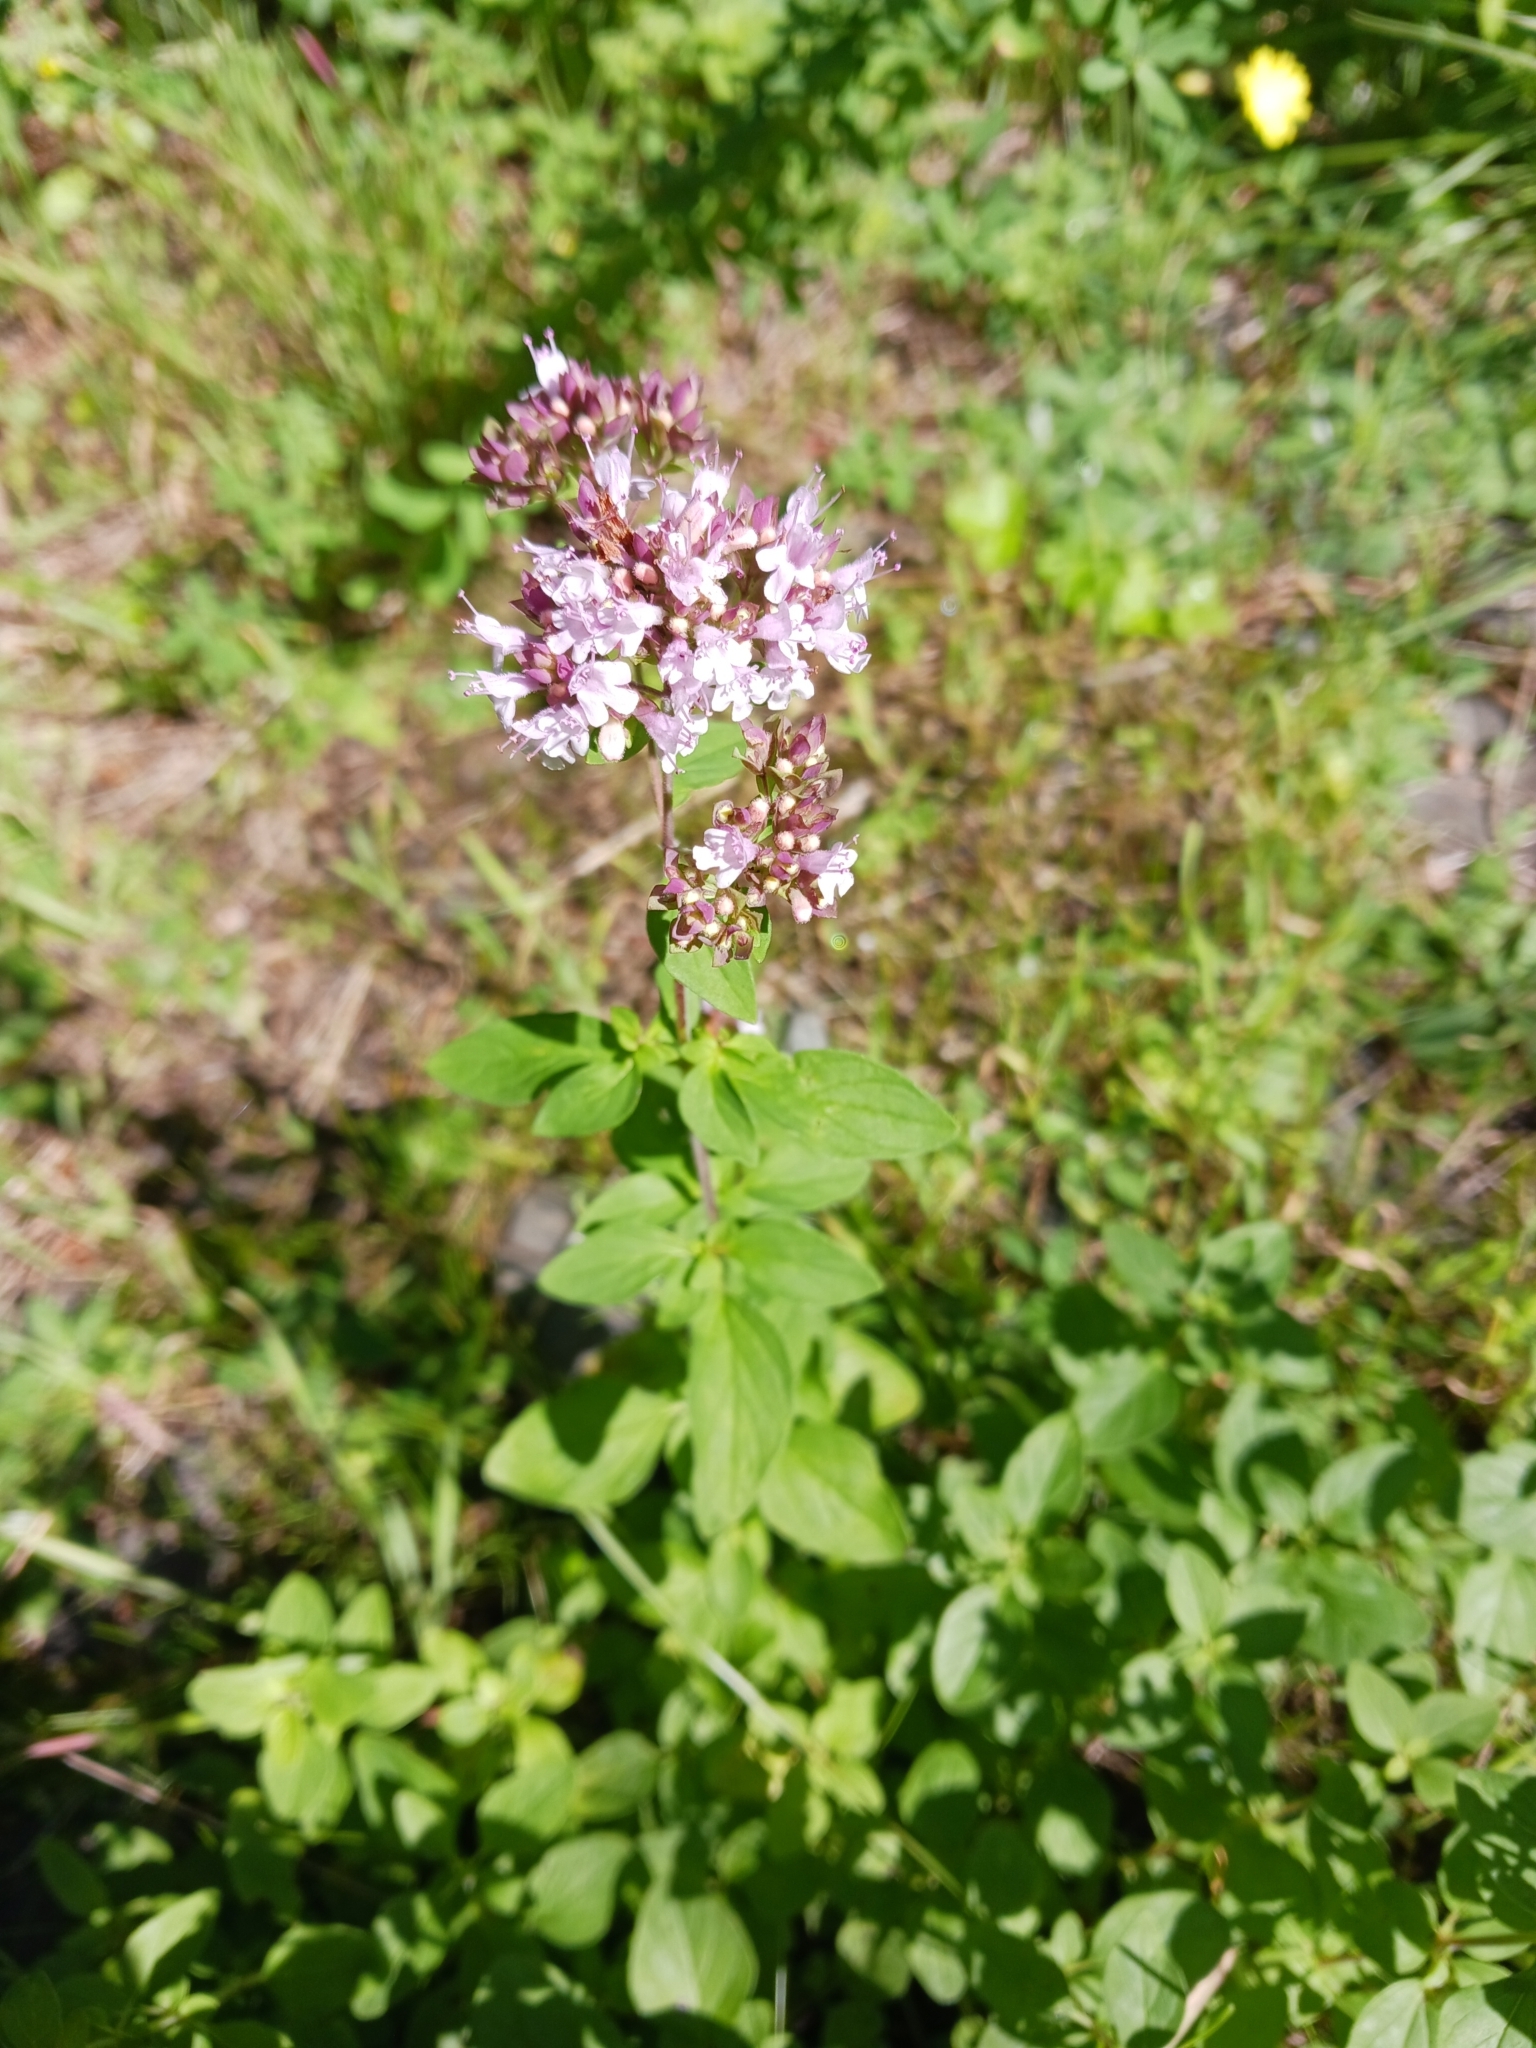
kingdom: Plantae
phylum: Tracheophyta
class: Magnoliopsida
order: Lamiales
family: Lamiaceae
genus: Origanum
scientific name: Origanum vulgare
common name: Wild marjoram
